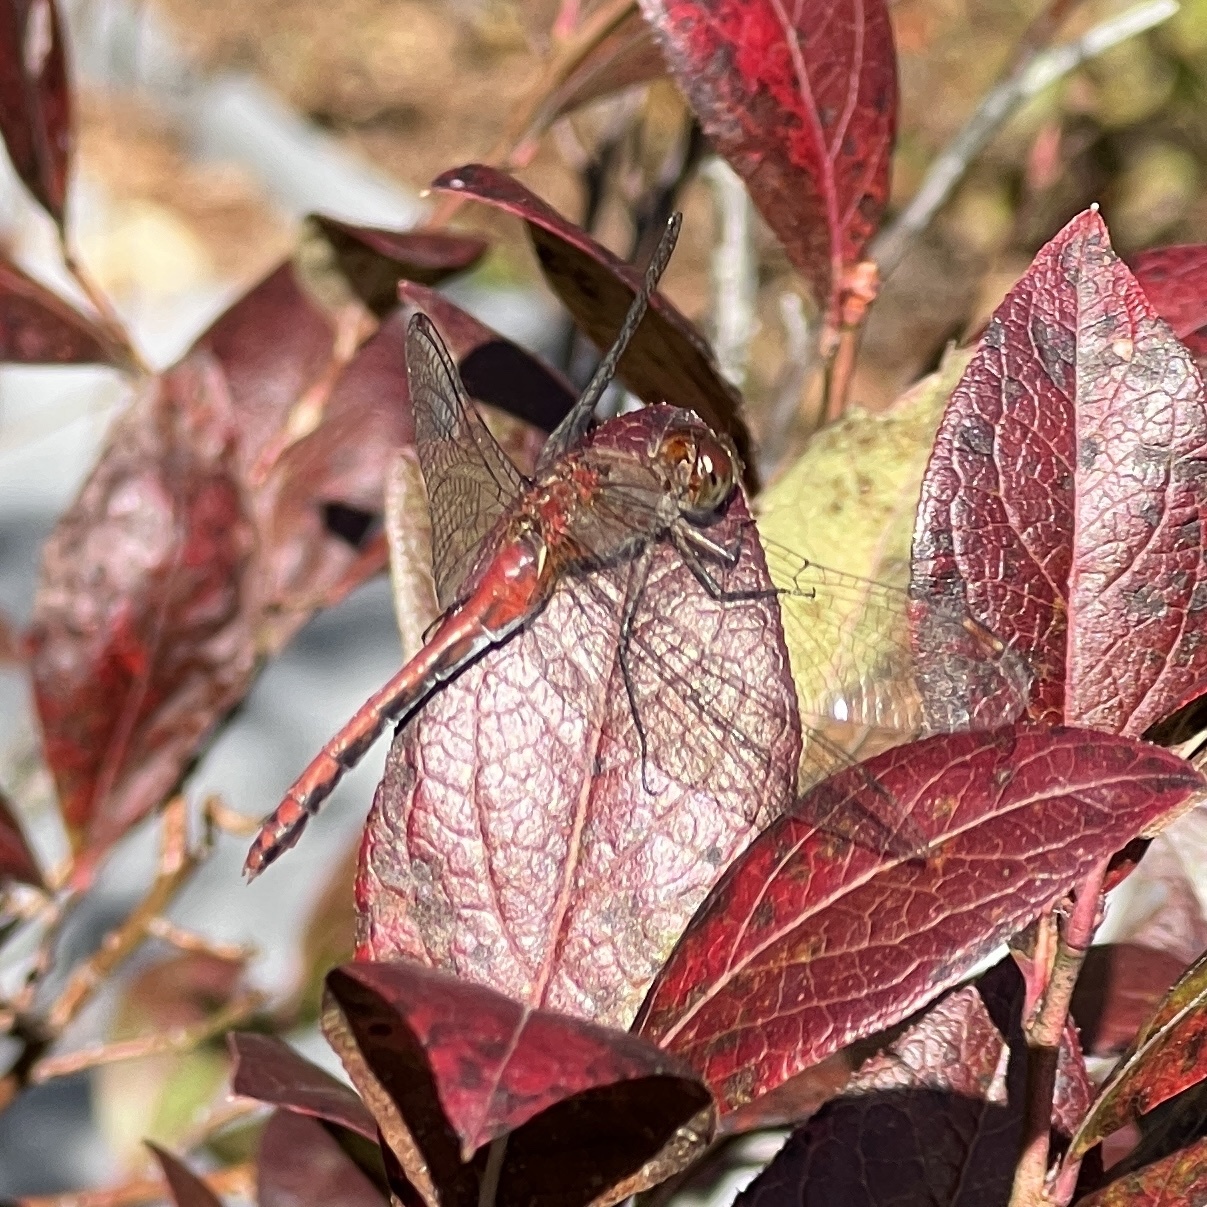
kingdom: Animalia
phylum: Arthropoda
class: Insecta
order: Odonata
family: Libellulidae
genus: Sympetrum
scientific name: Sympetrum
